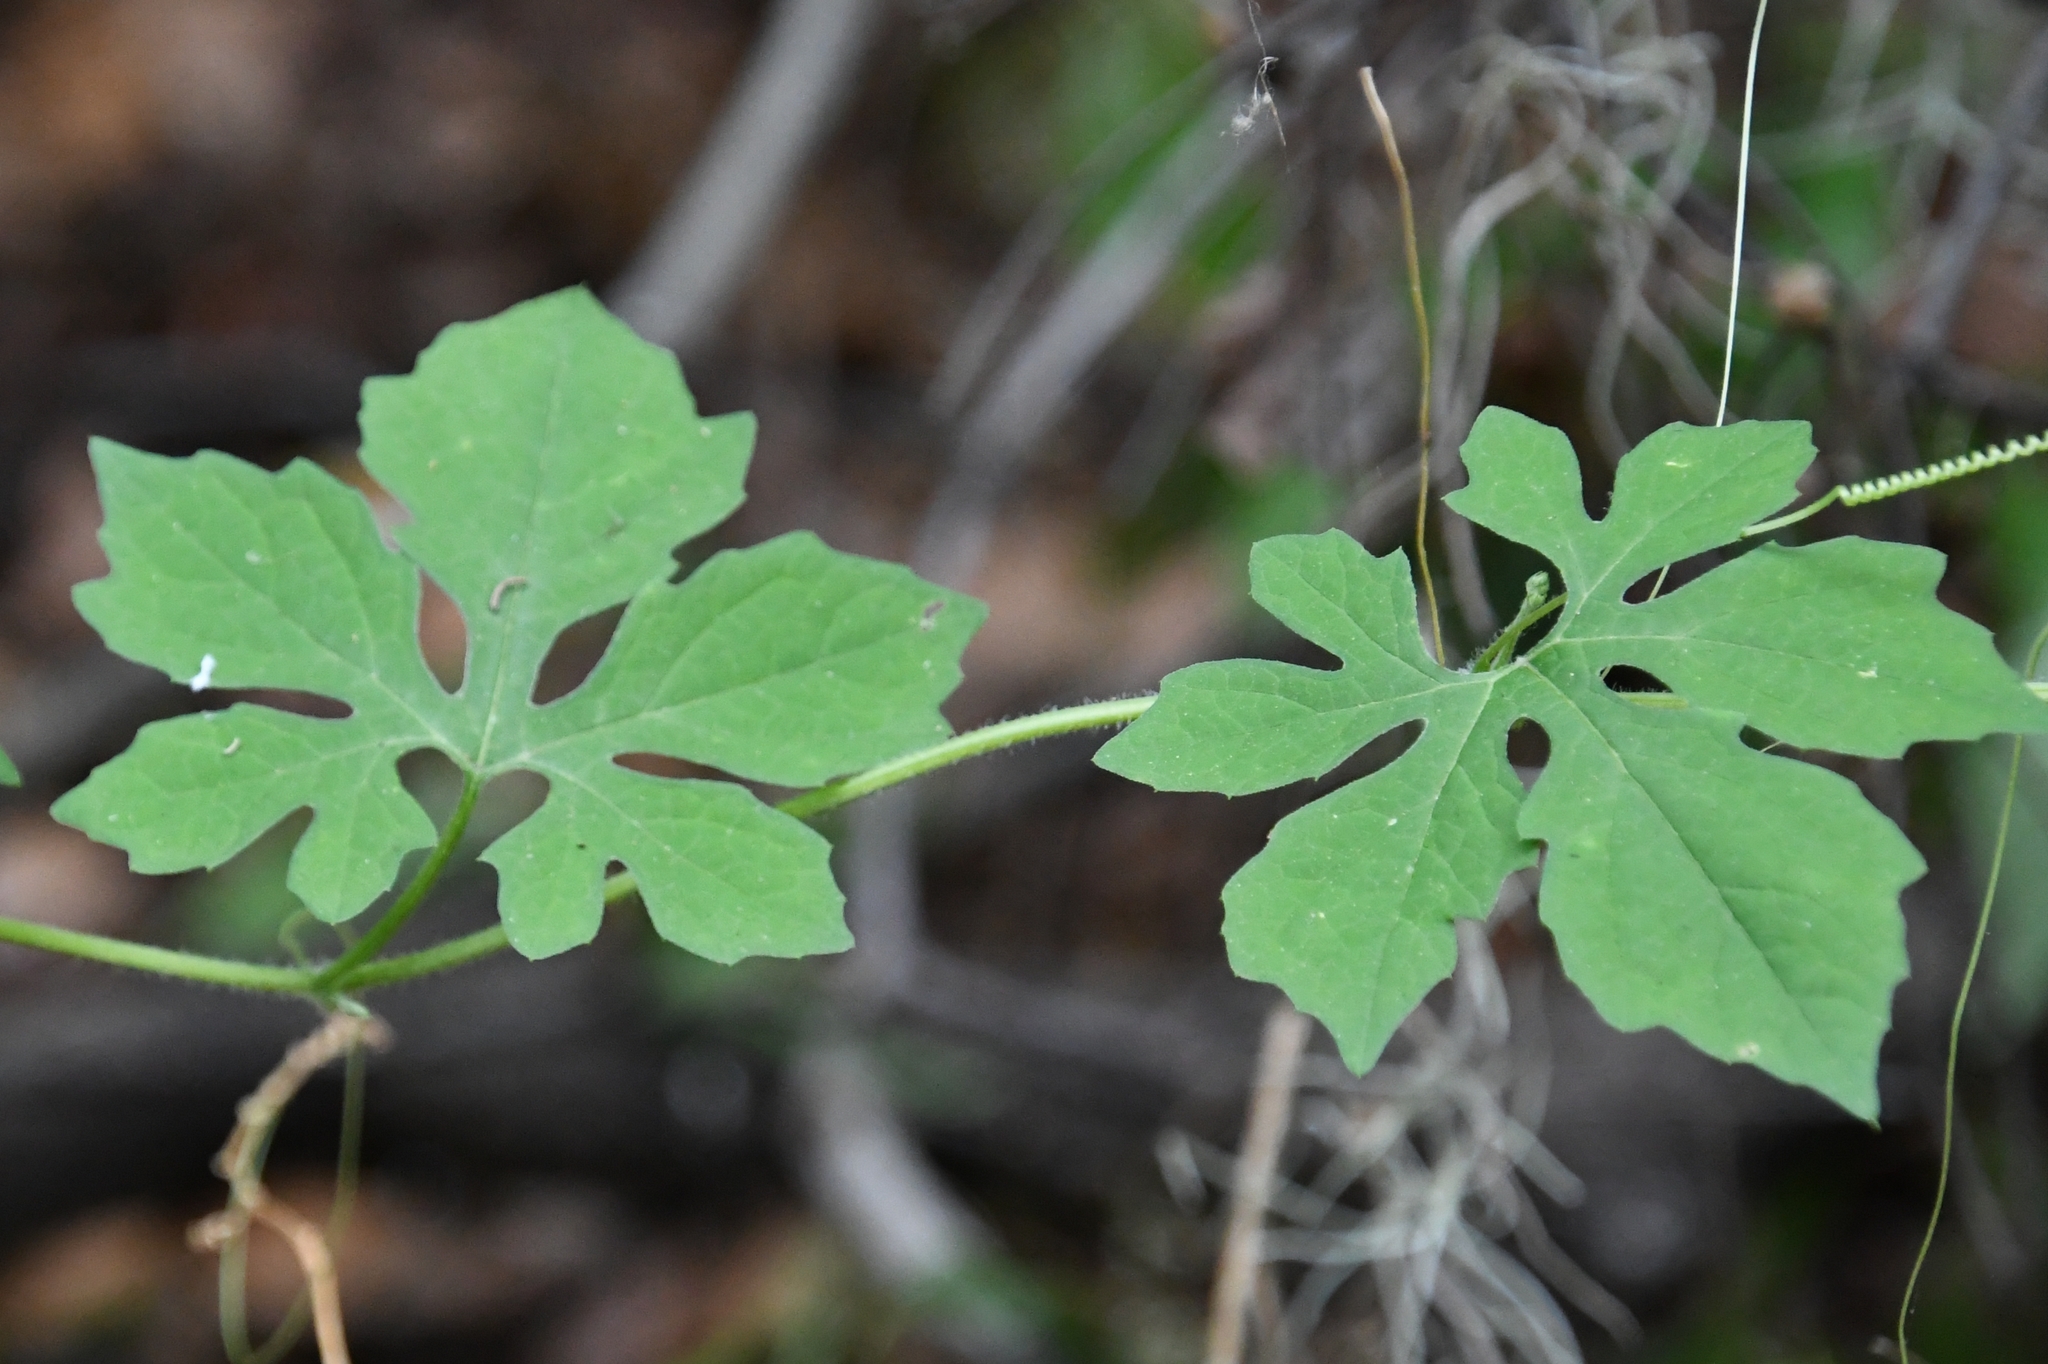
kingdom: Plantae
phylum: Tracheophyta
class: Magnoliopsida
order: Cucurbitales
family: Cucurbitaceae
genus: Momordica
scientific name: Momordica charantia
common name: Balsampear
